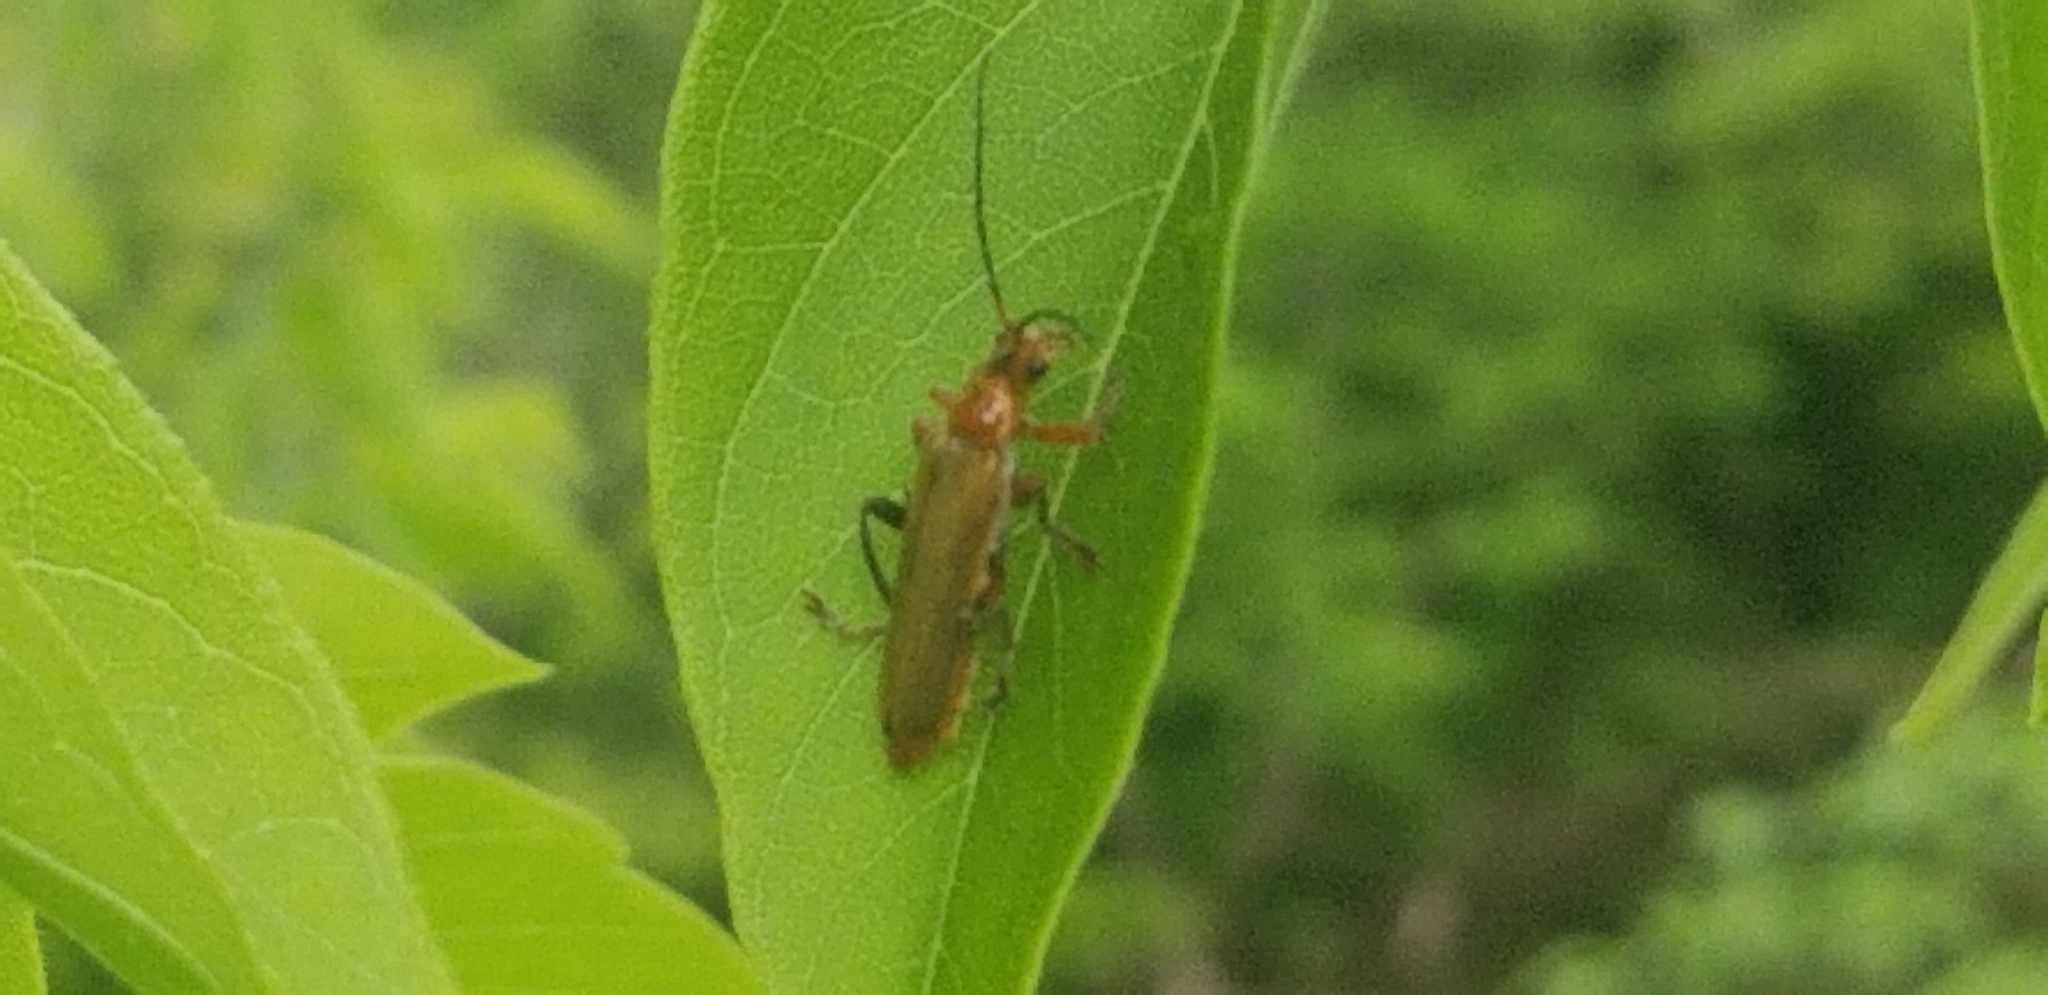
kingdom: Animalia
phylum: Arthropoda
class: Insecta
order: Coleoptera
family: Cantharidae
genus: Cantharis
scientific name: Cantharis livida
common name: Livid soldier beetle
